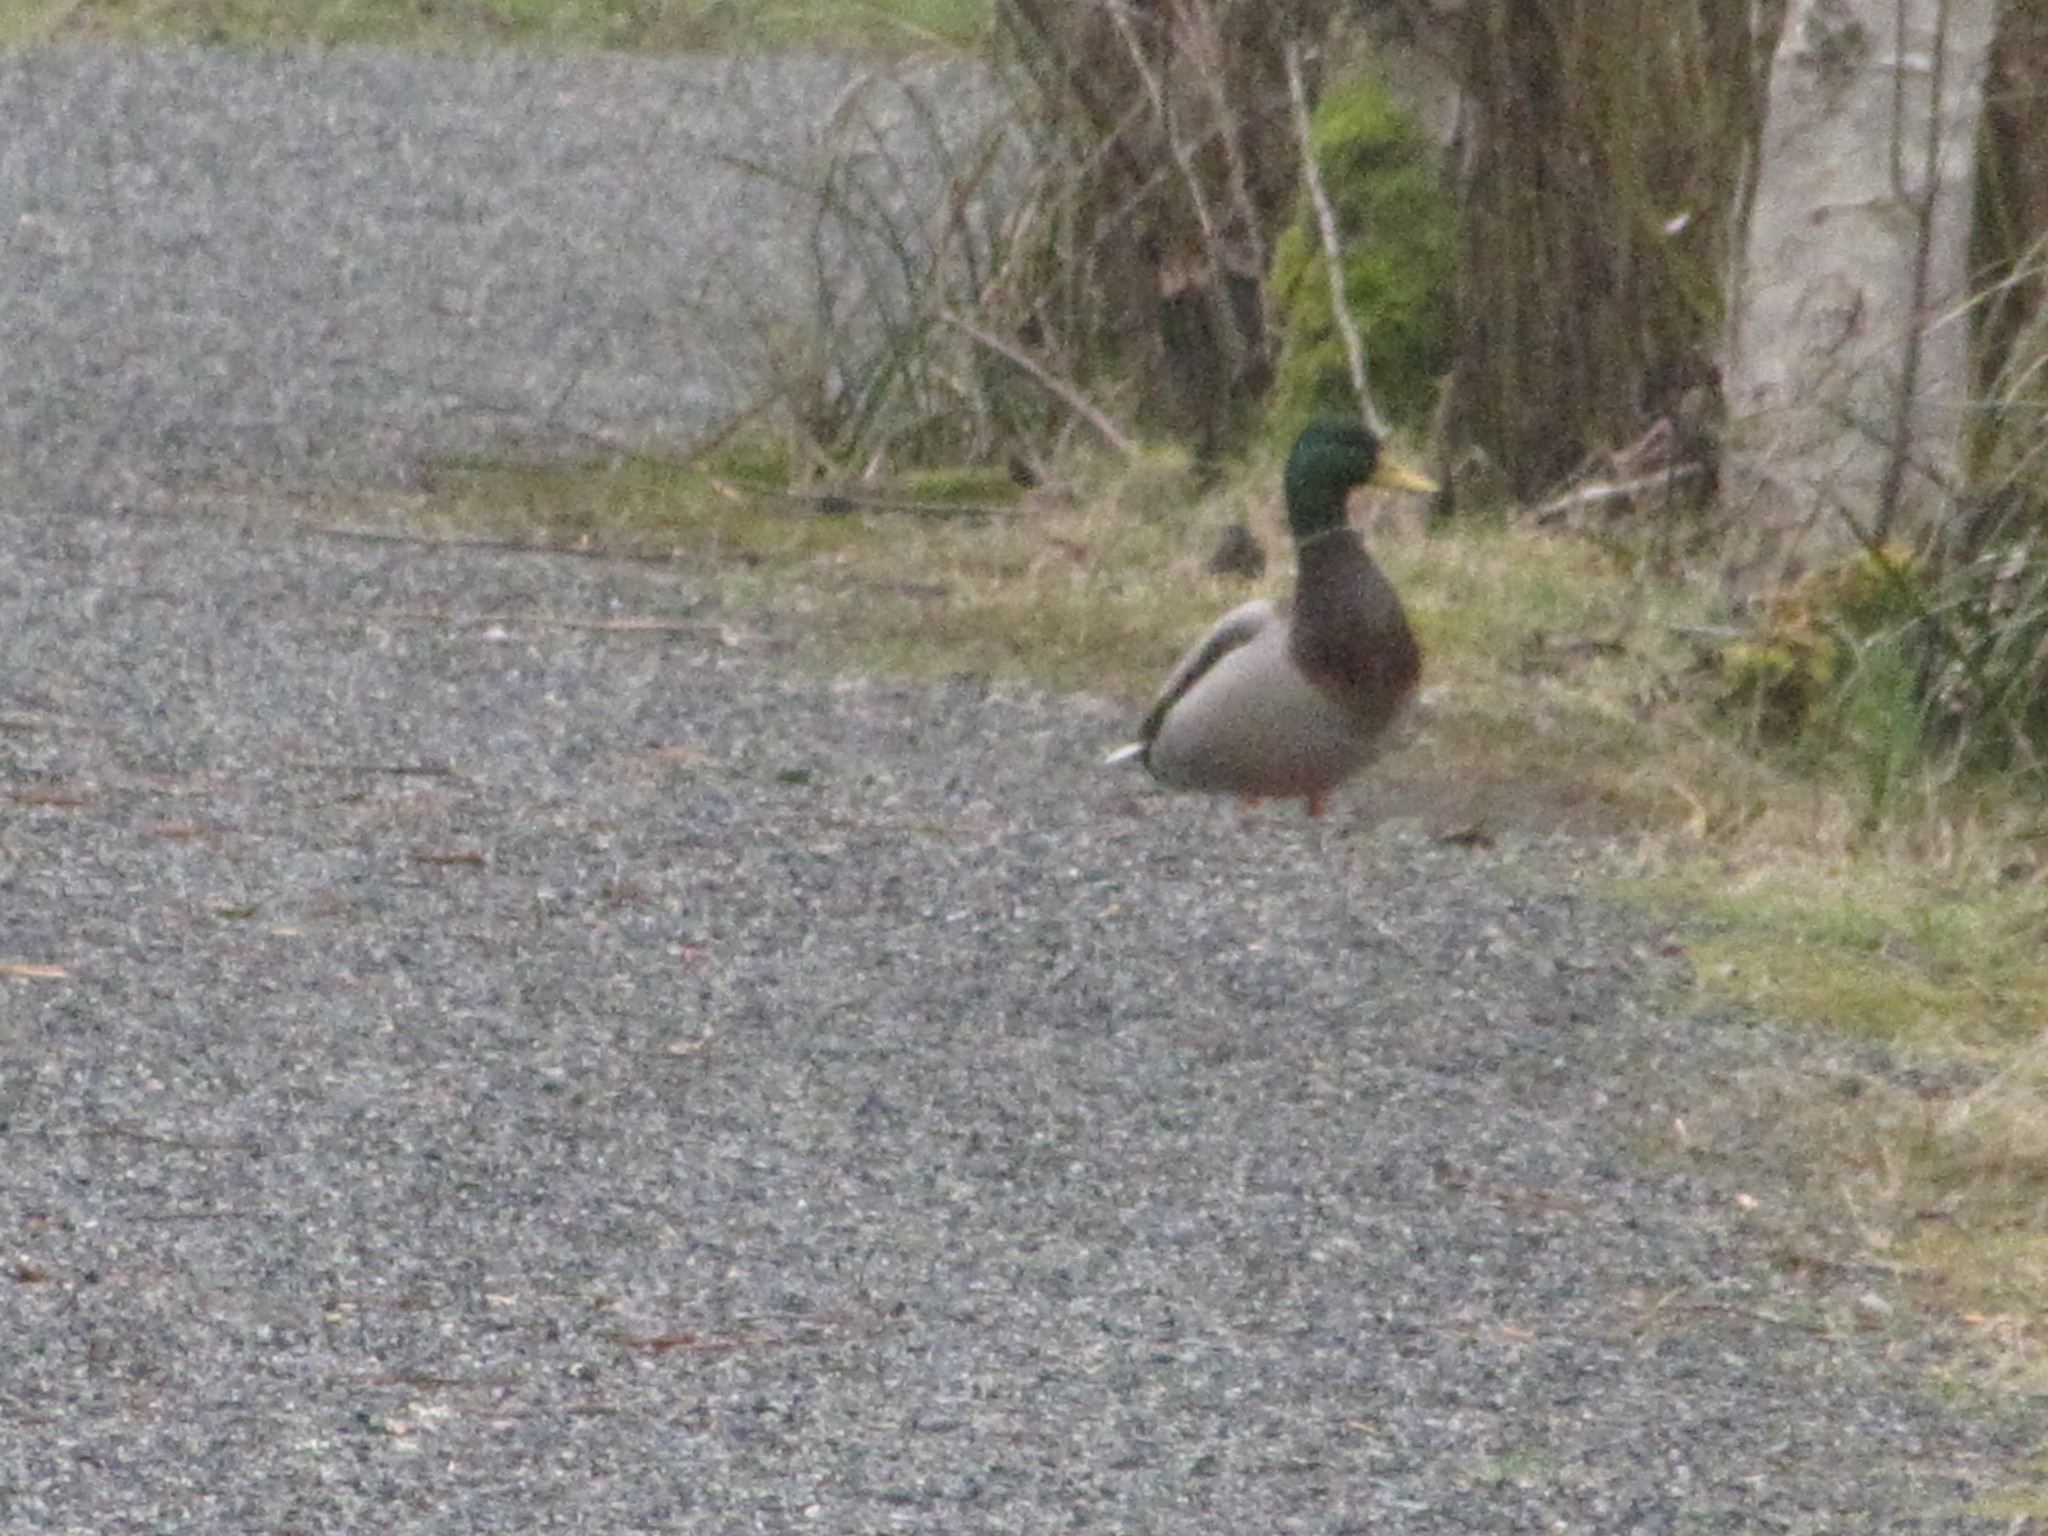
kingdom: Animalia
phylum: Chordata
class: Aves
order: Anseriformes
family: Anatidae
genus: Anas
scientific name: Anas platyrhynchos
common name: Mallard
